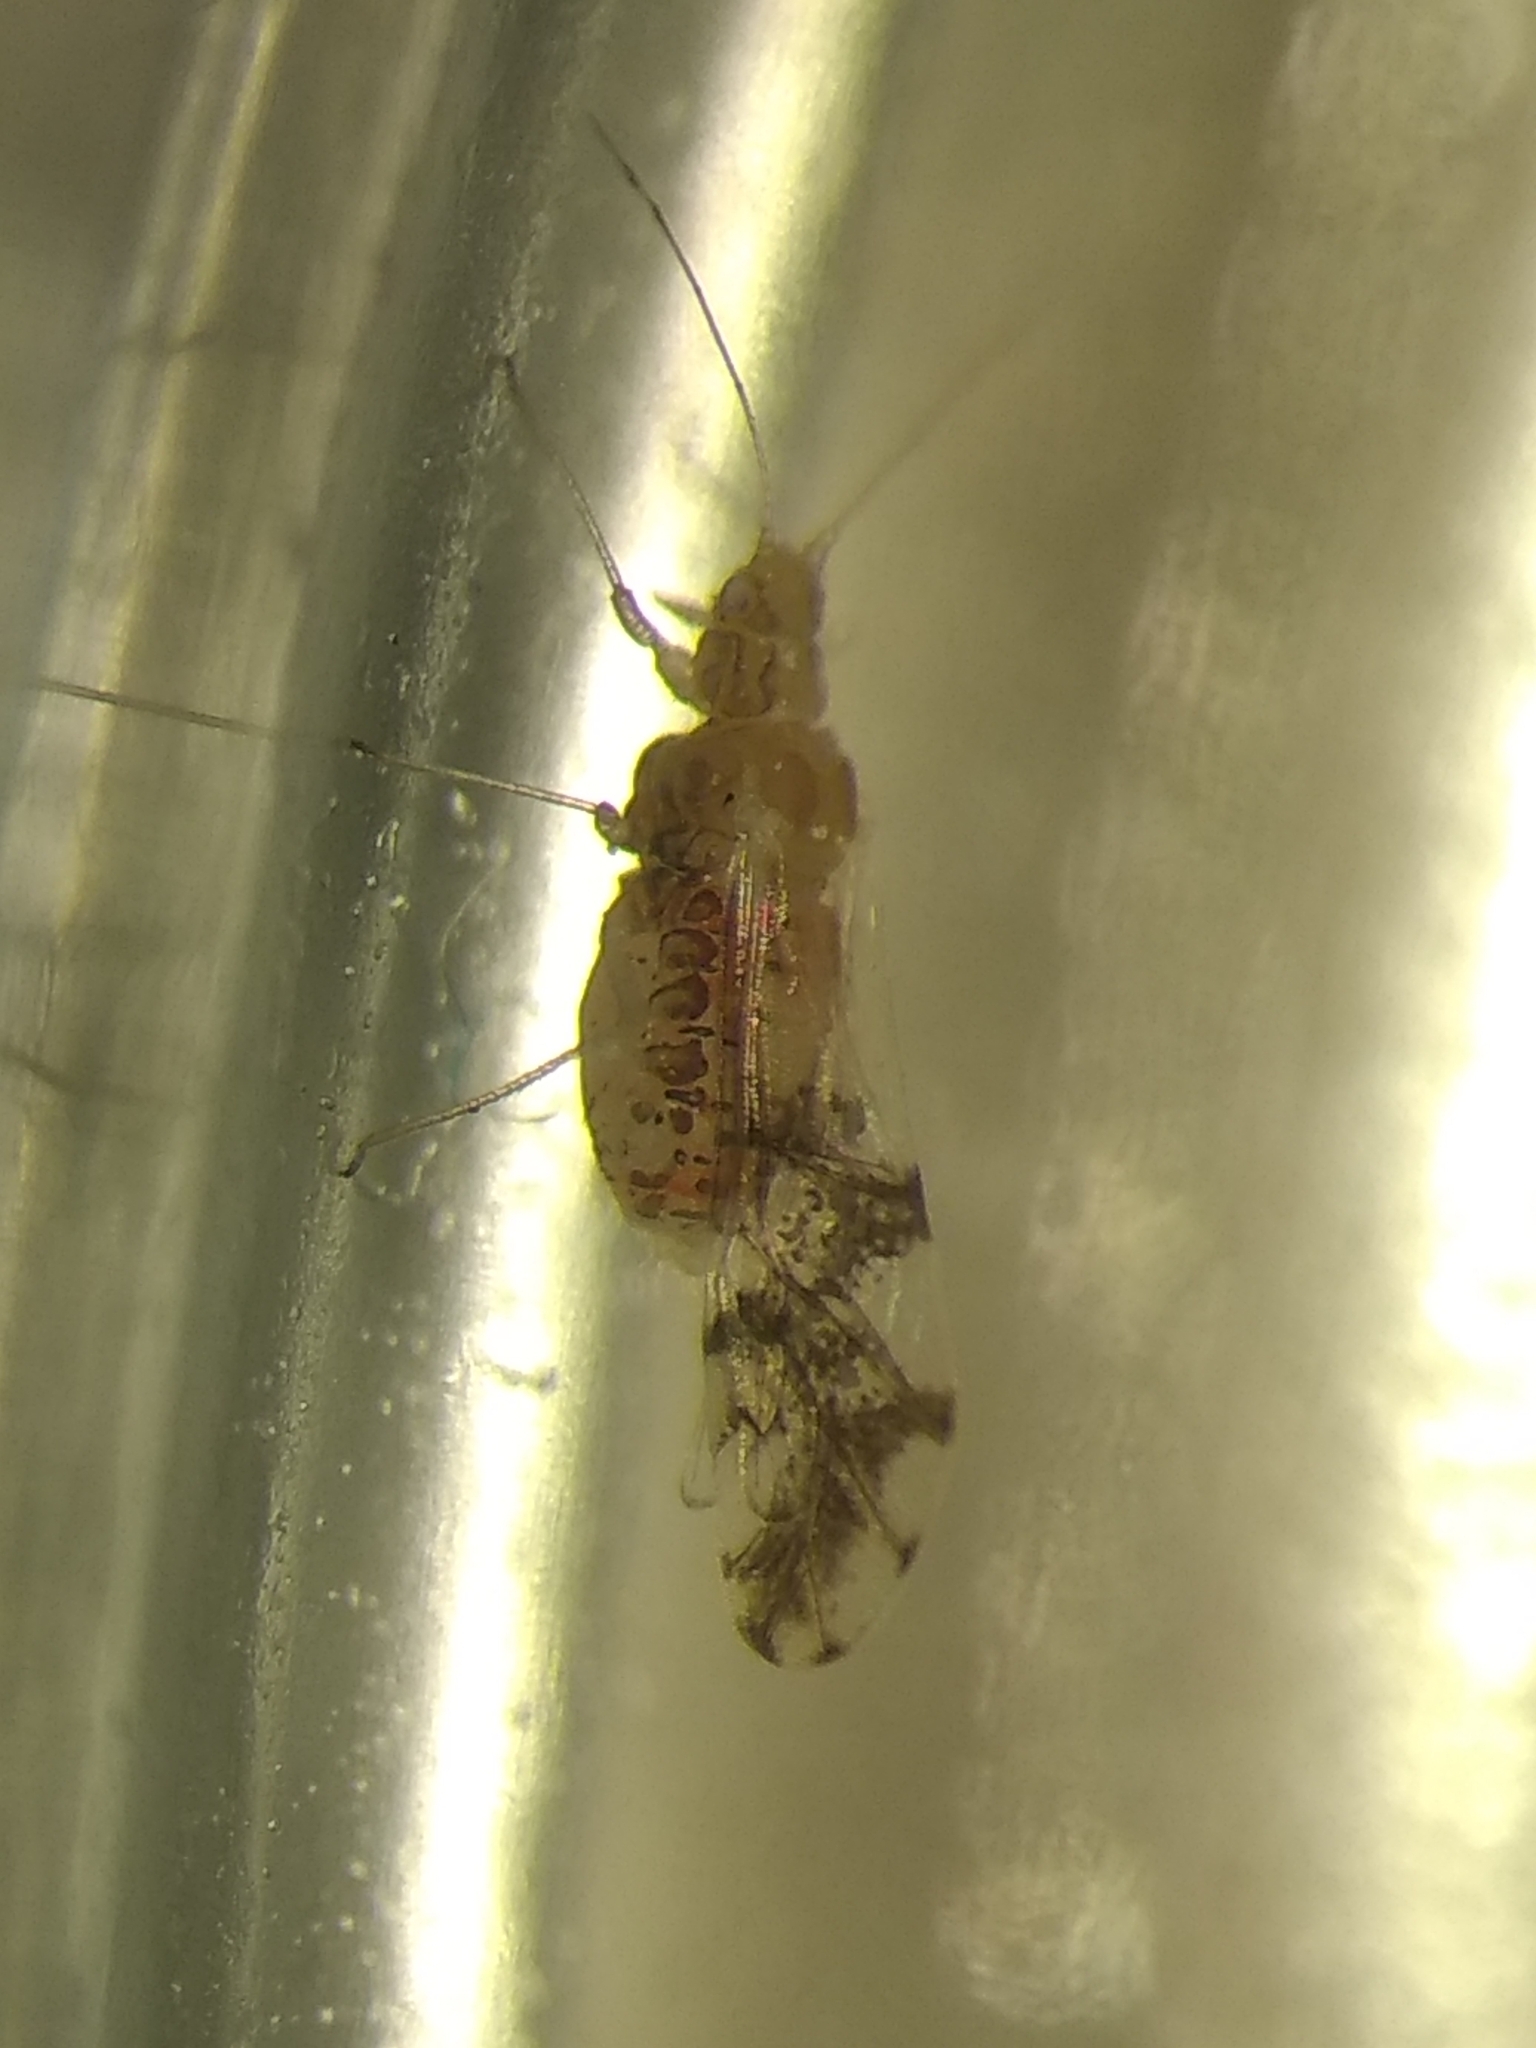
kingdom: Animalia
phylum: Arthropoda
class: Insecta
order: Hemiptera
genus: Neomyzocallis
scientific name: Neomyzocallis
